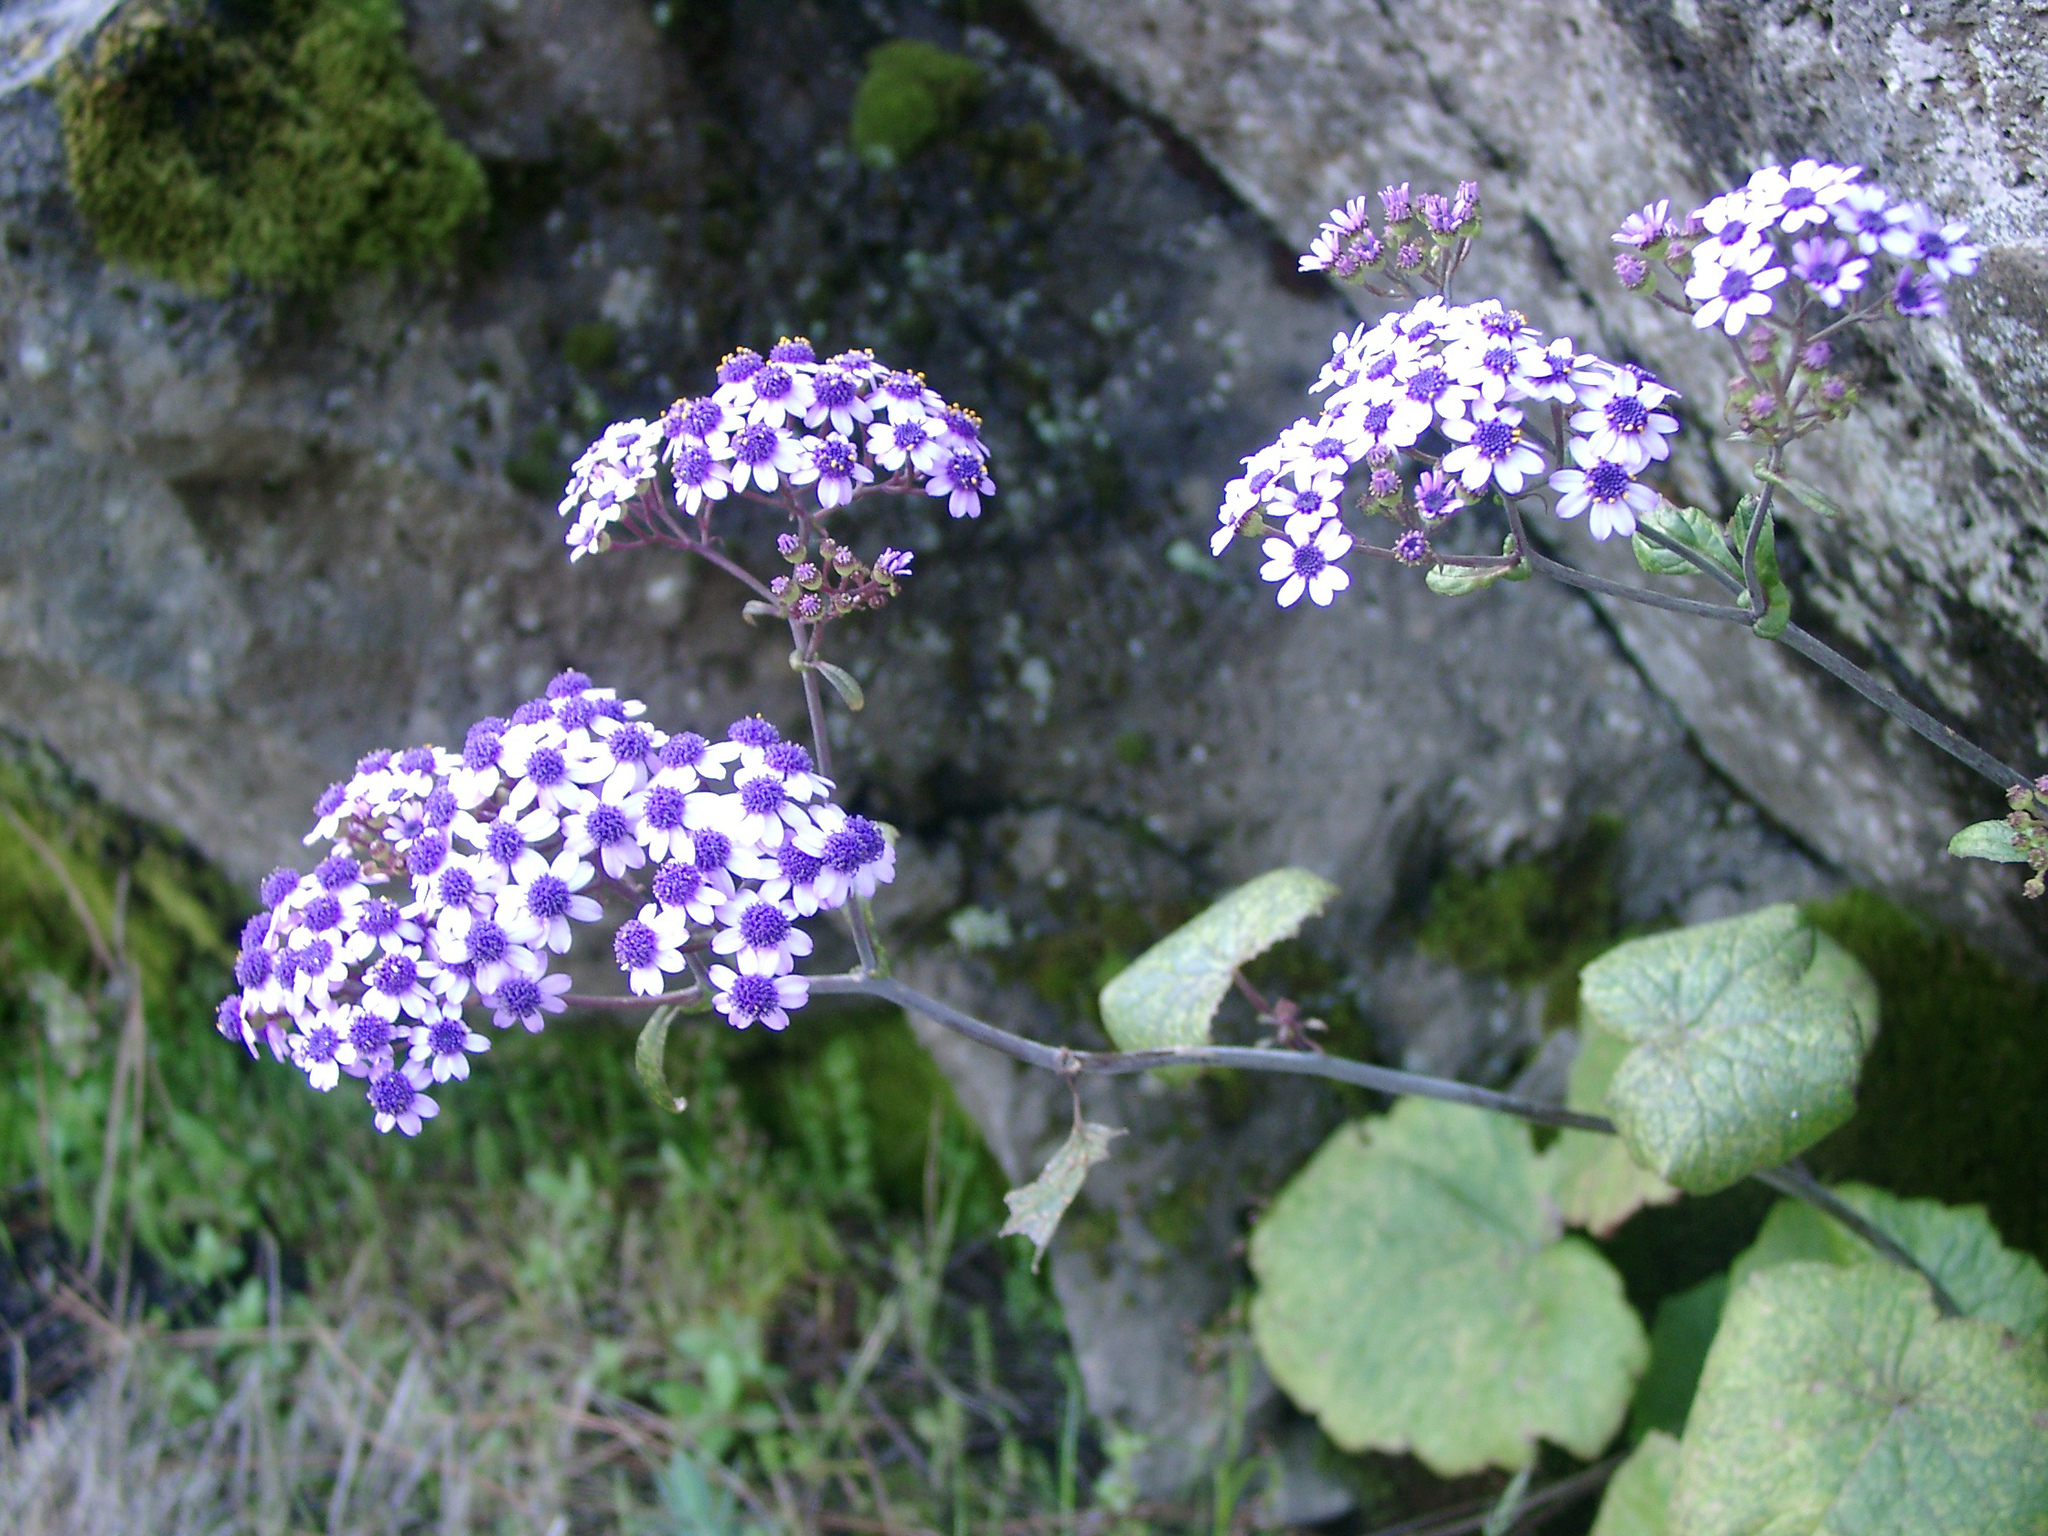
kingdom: Plantae
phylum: Tracheophyta
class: Magnoliopsida
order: Asterales
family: Asteraceae
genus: Pericallis
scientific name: Pericallis papyracea
